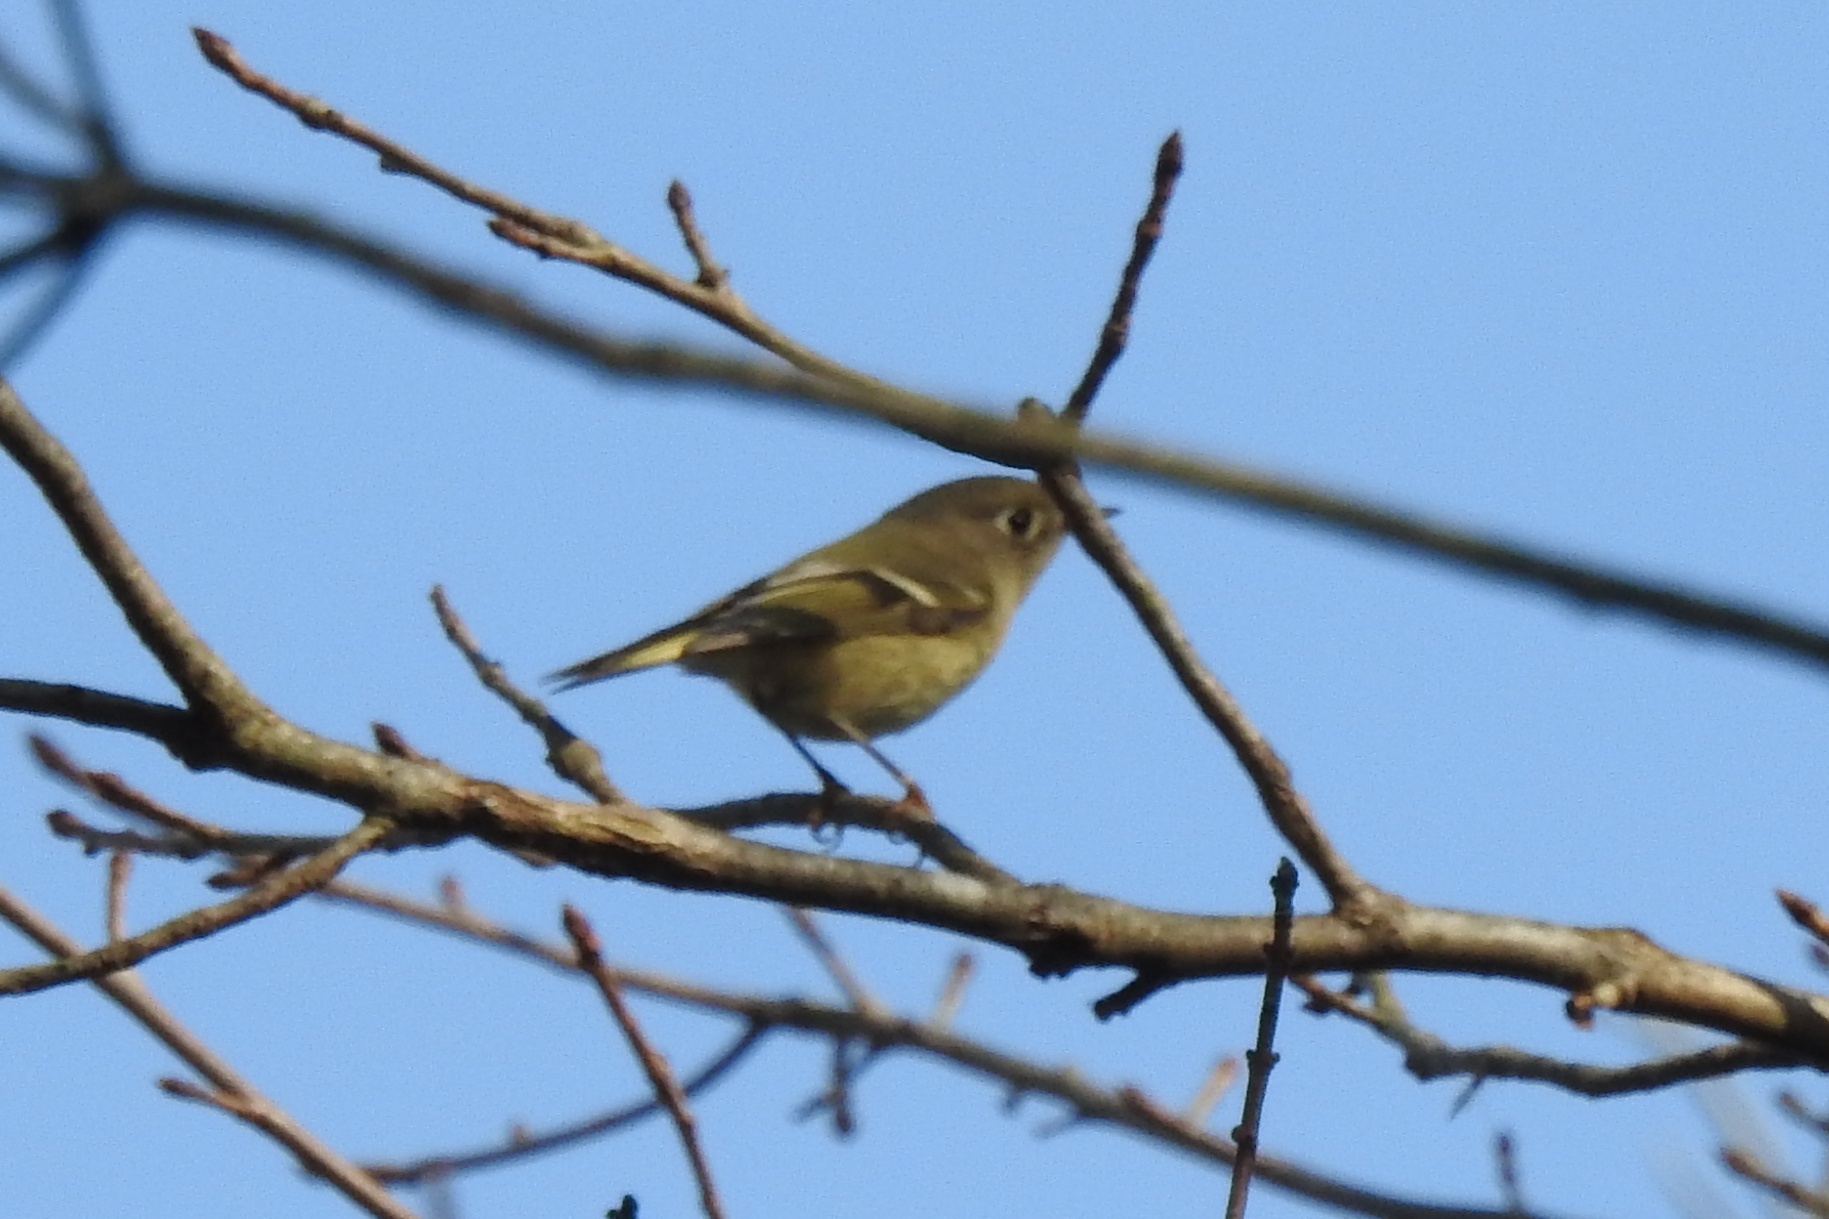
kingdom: Animalia
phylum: Chordata
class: Aves
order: Passeriformes
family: Regulidae
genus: Regulus
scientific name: Regulus calendula
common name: Ruby-crowned kinglet
